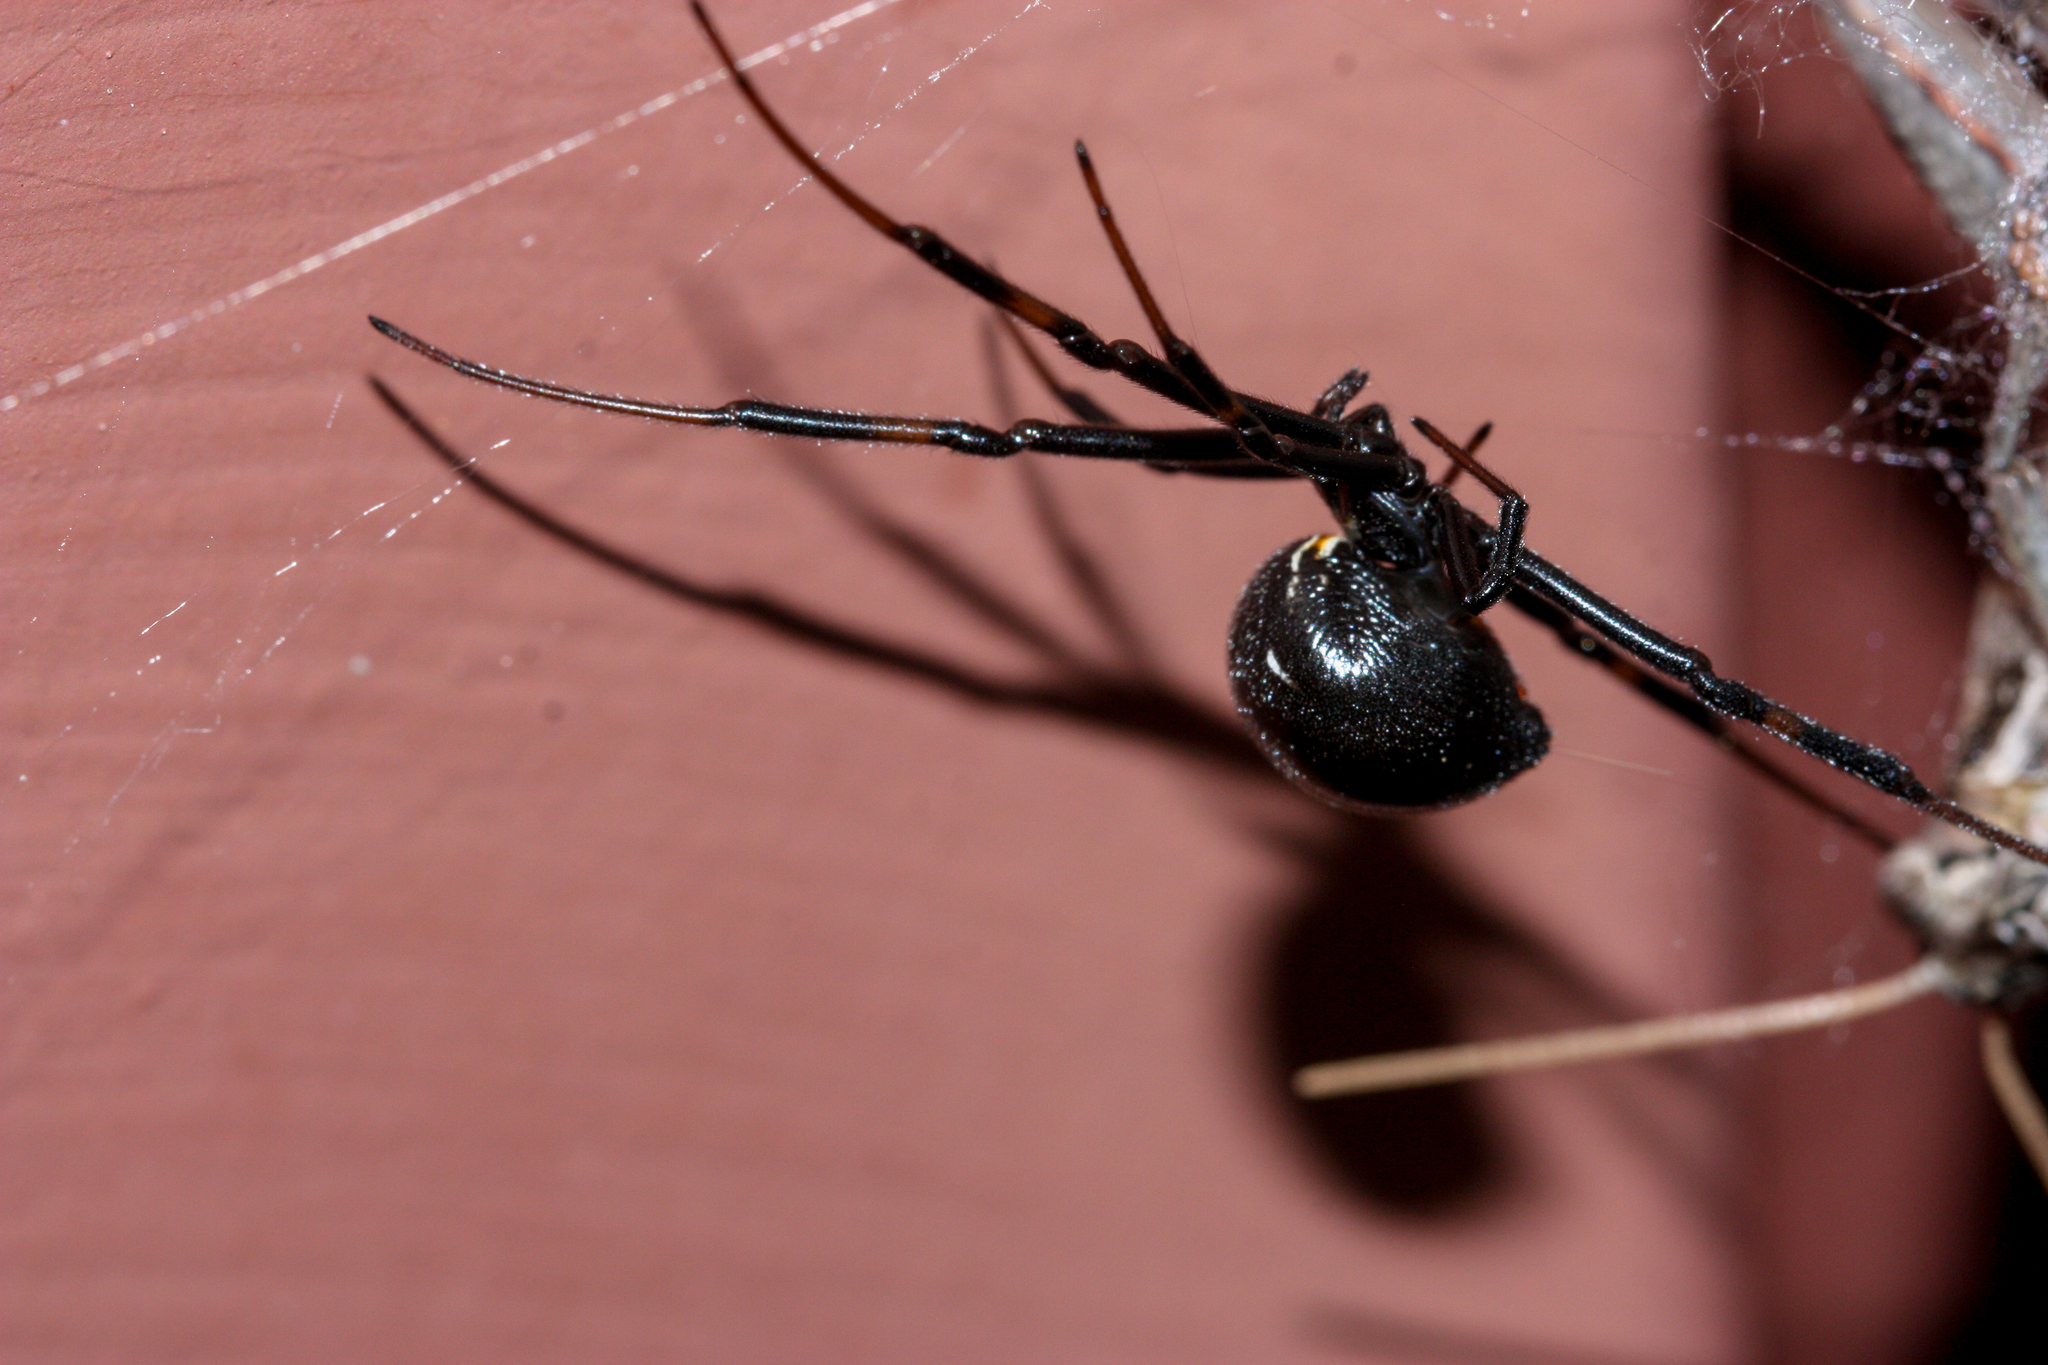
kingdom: Animalia
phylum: Arthropoda
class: Arachnida
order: Araneae
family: Theridiidae
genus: Latrodectus
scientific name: Latrodectus hesperus
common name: Western black widow
